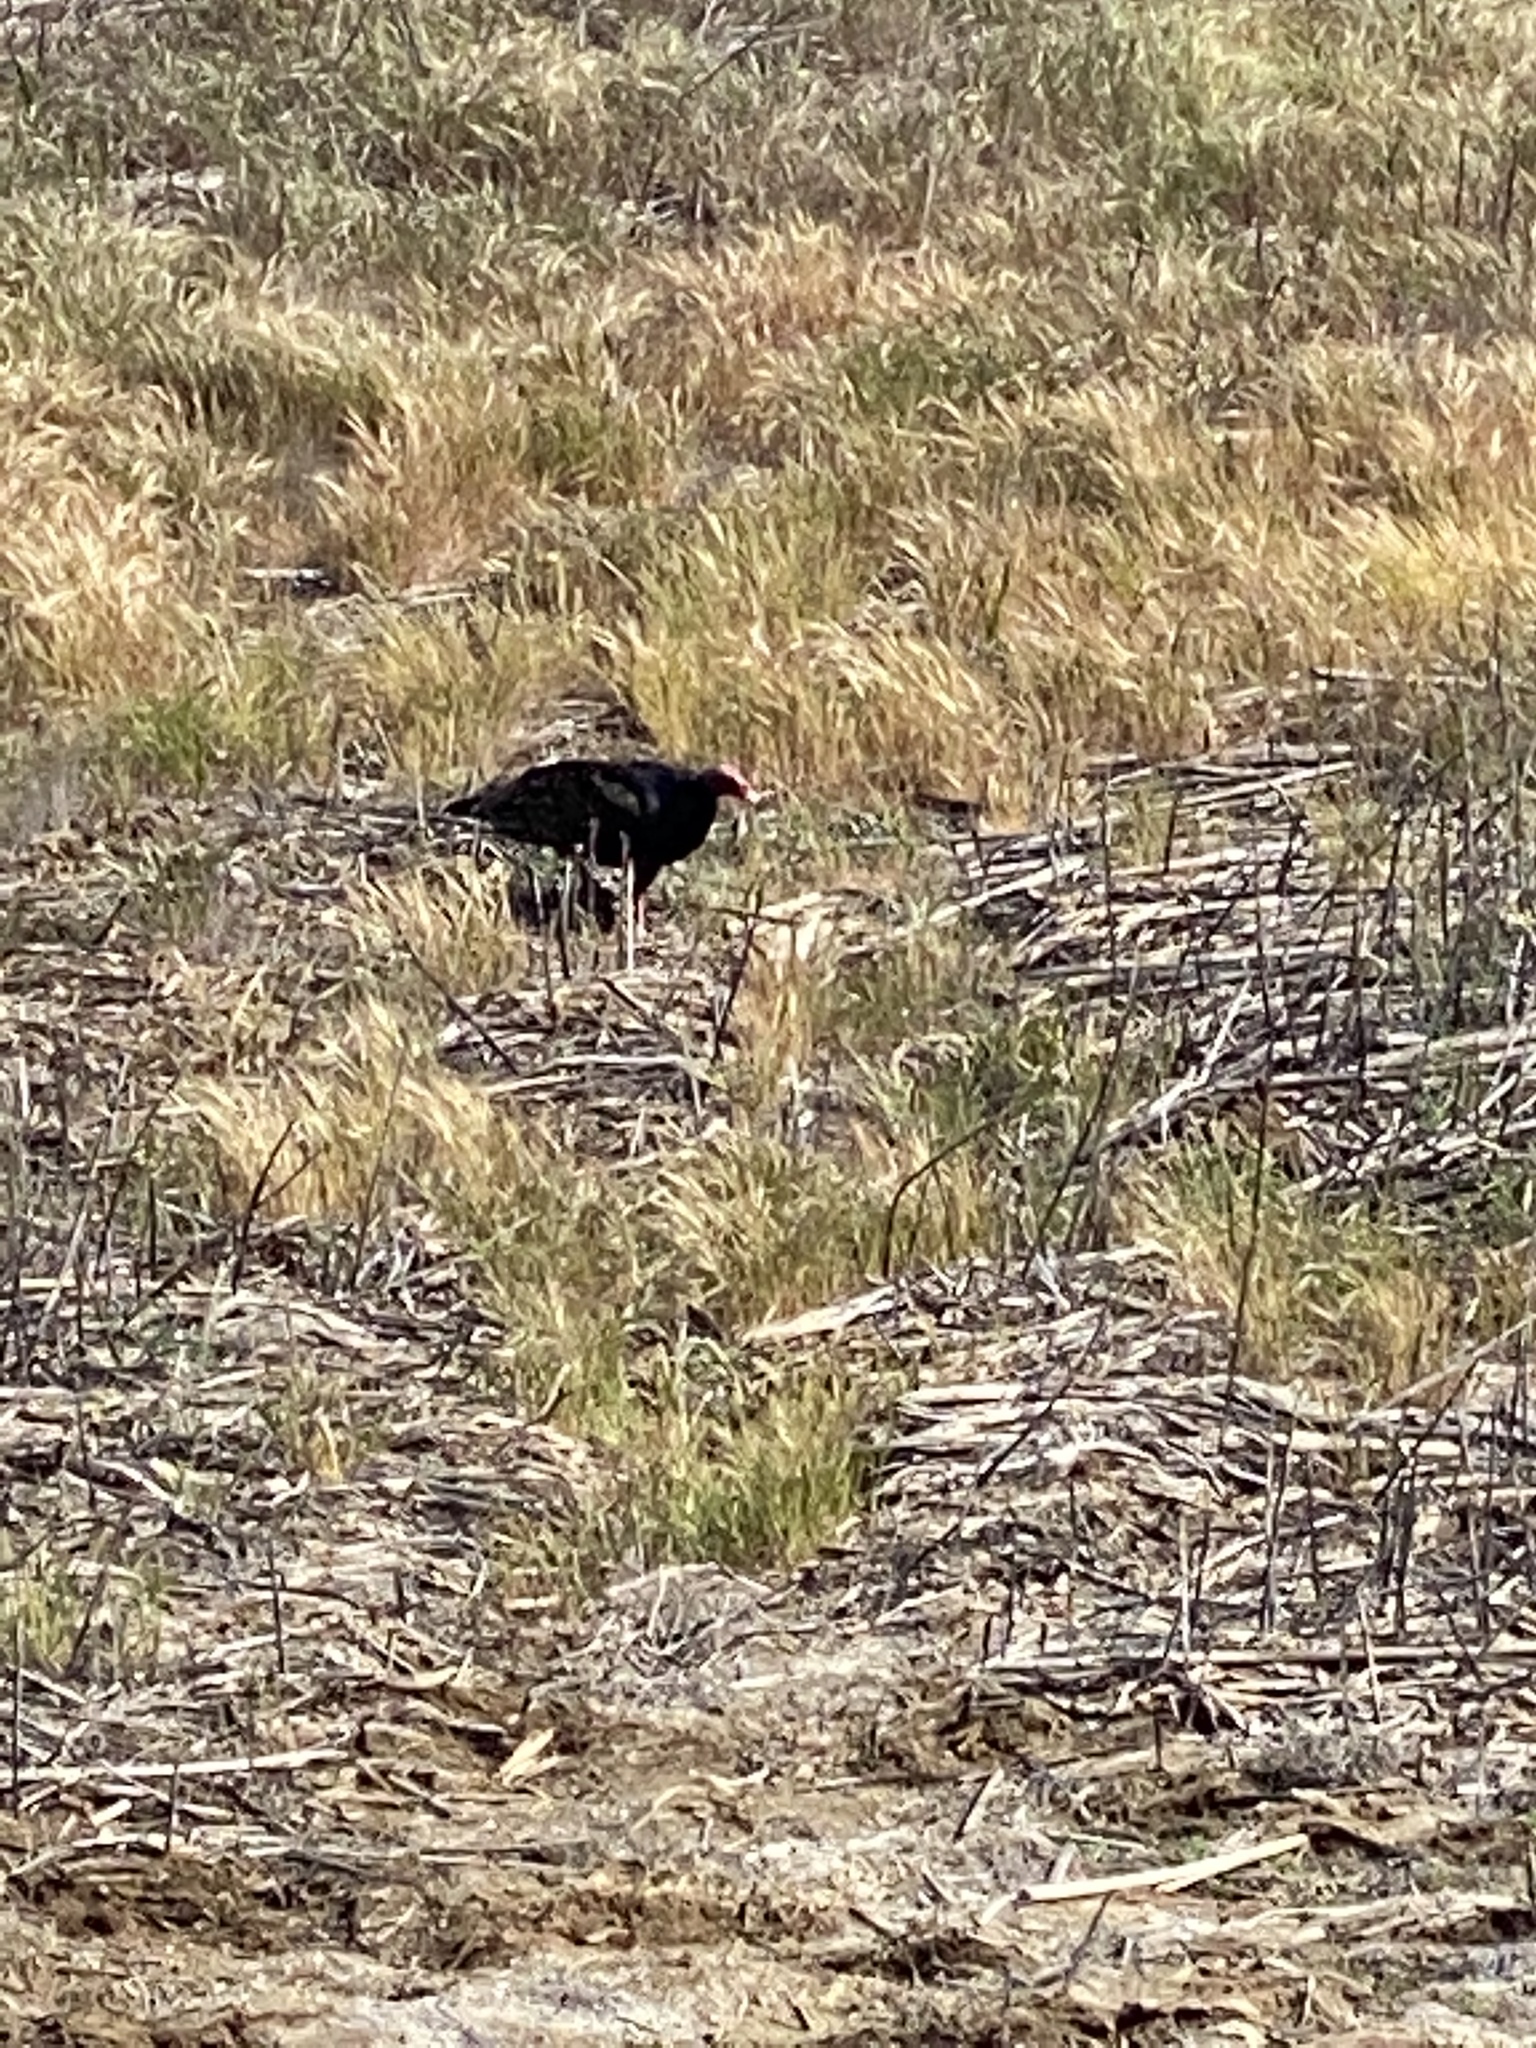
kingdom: Animalia
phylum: Chordata
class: Aves
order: Accipitriformes
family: Cathartidae
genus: Cathartes
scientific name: Cathartes aura
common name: Turkey vulture
